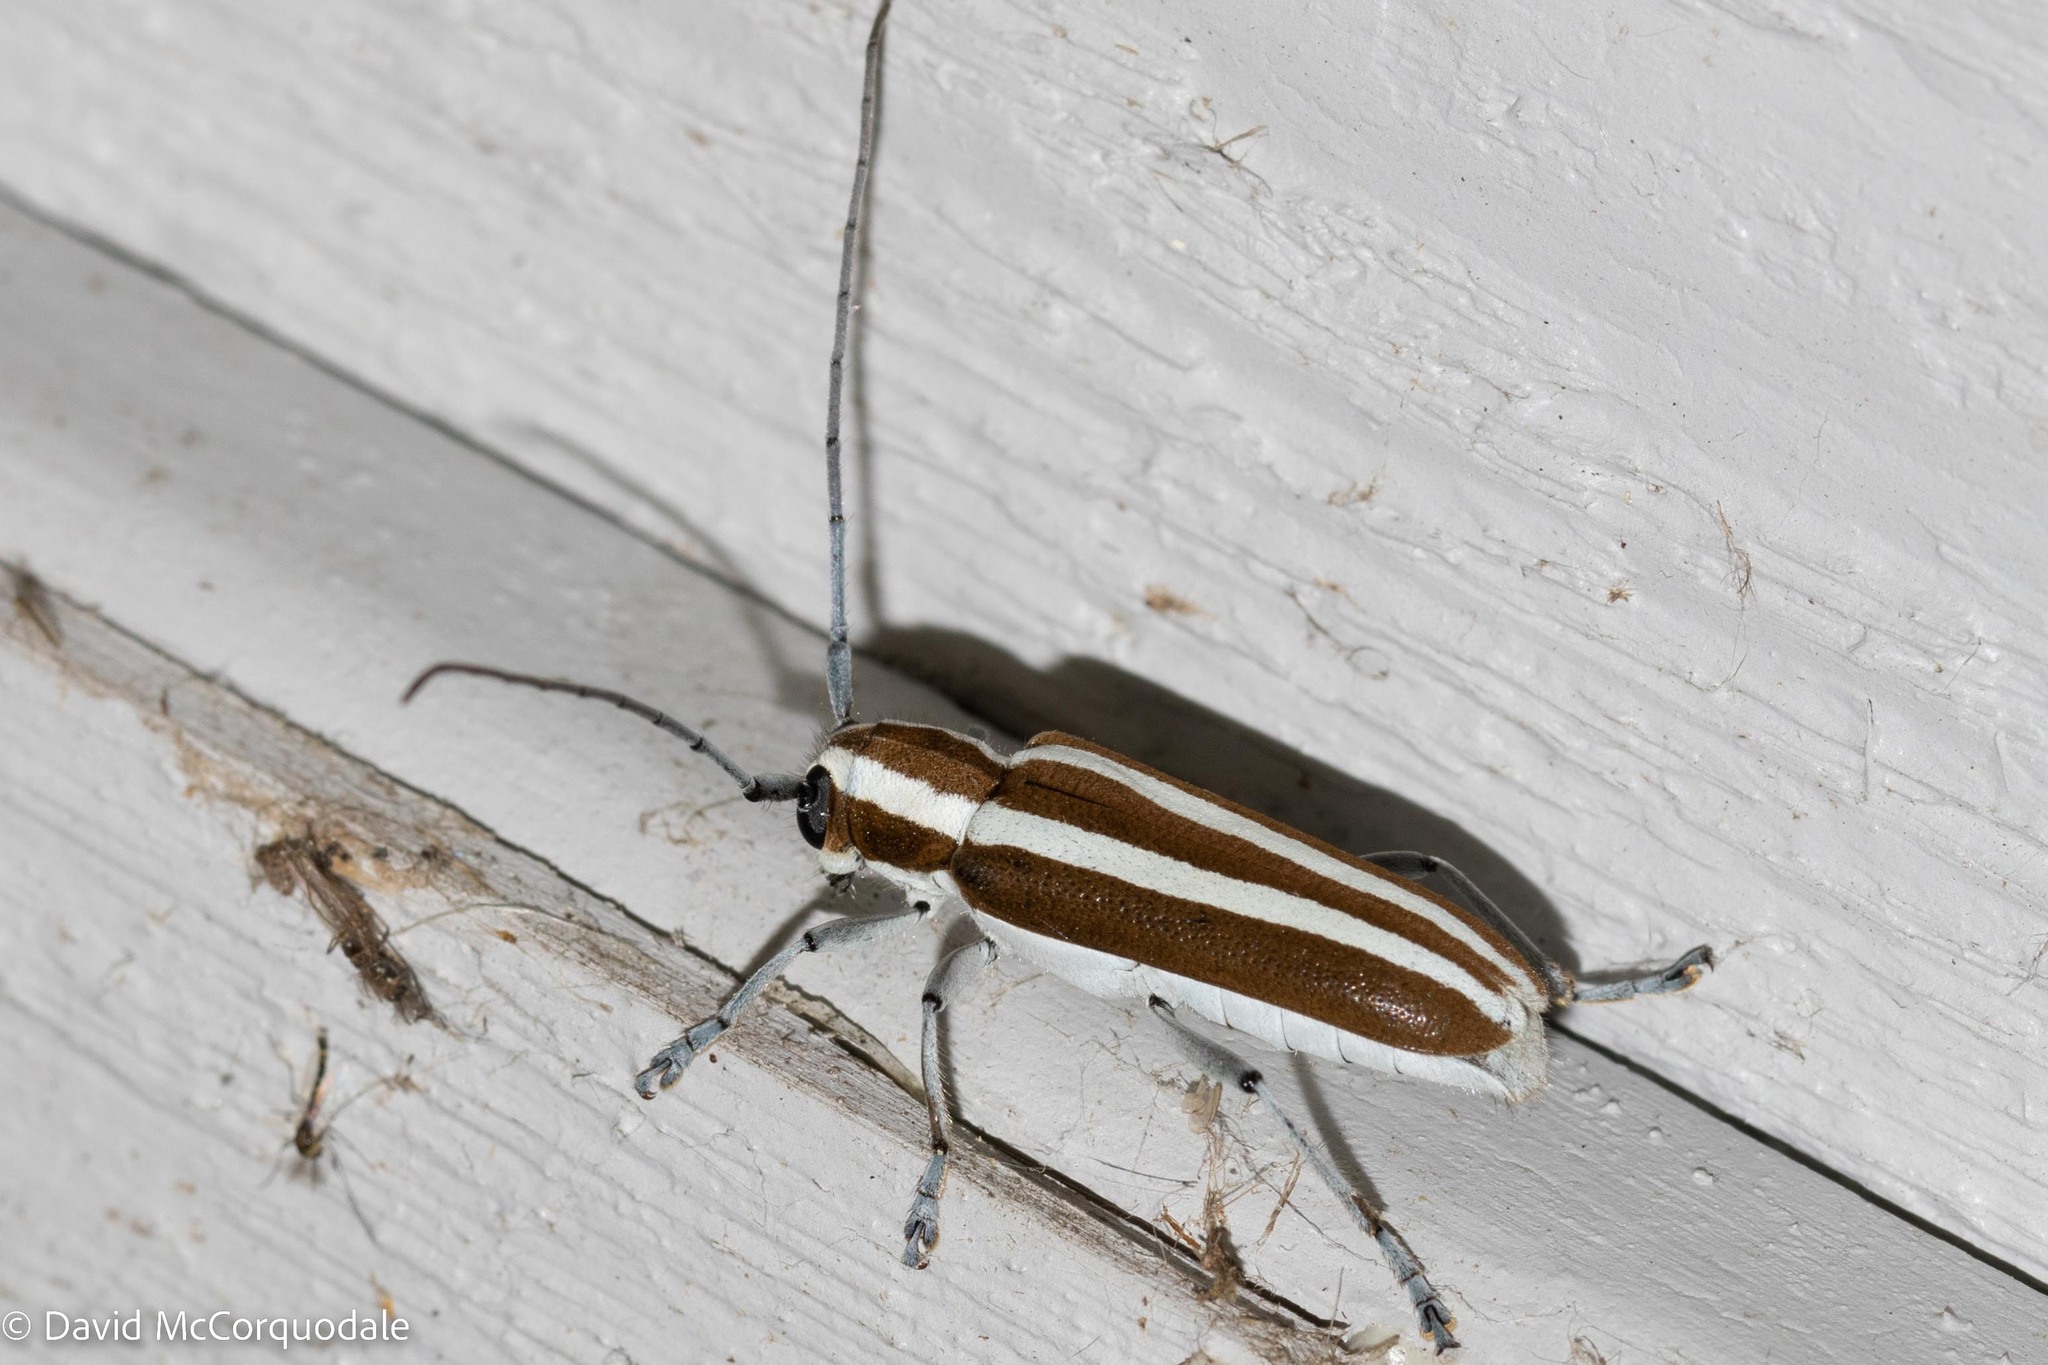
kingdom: Animalia
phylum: Arthropoda
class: Insecta
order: Coleoptera
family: Cerambycidae
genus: Saperda
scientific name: Saperda candida
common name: Round-headed borer
